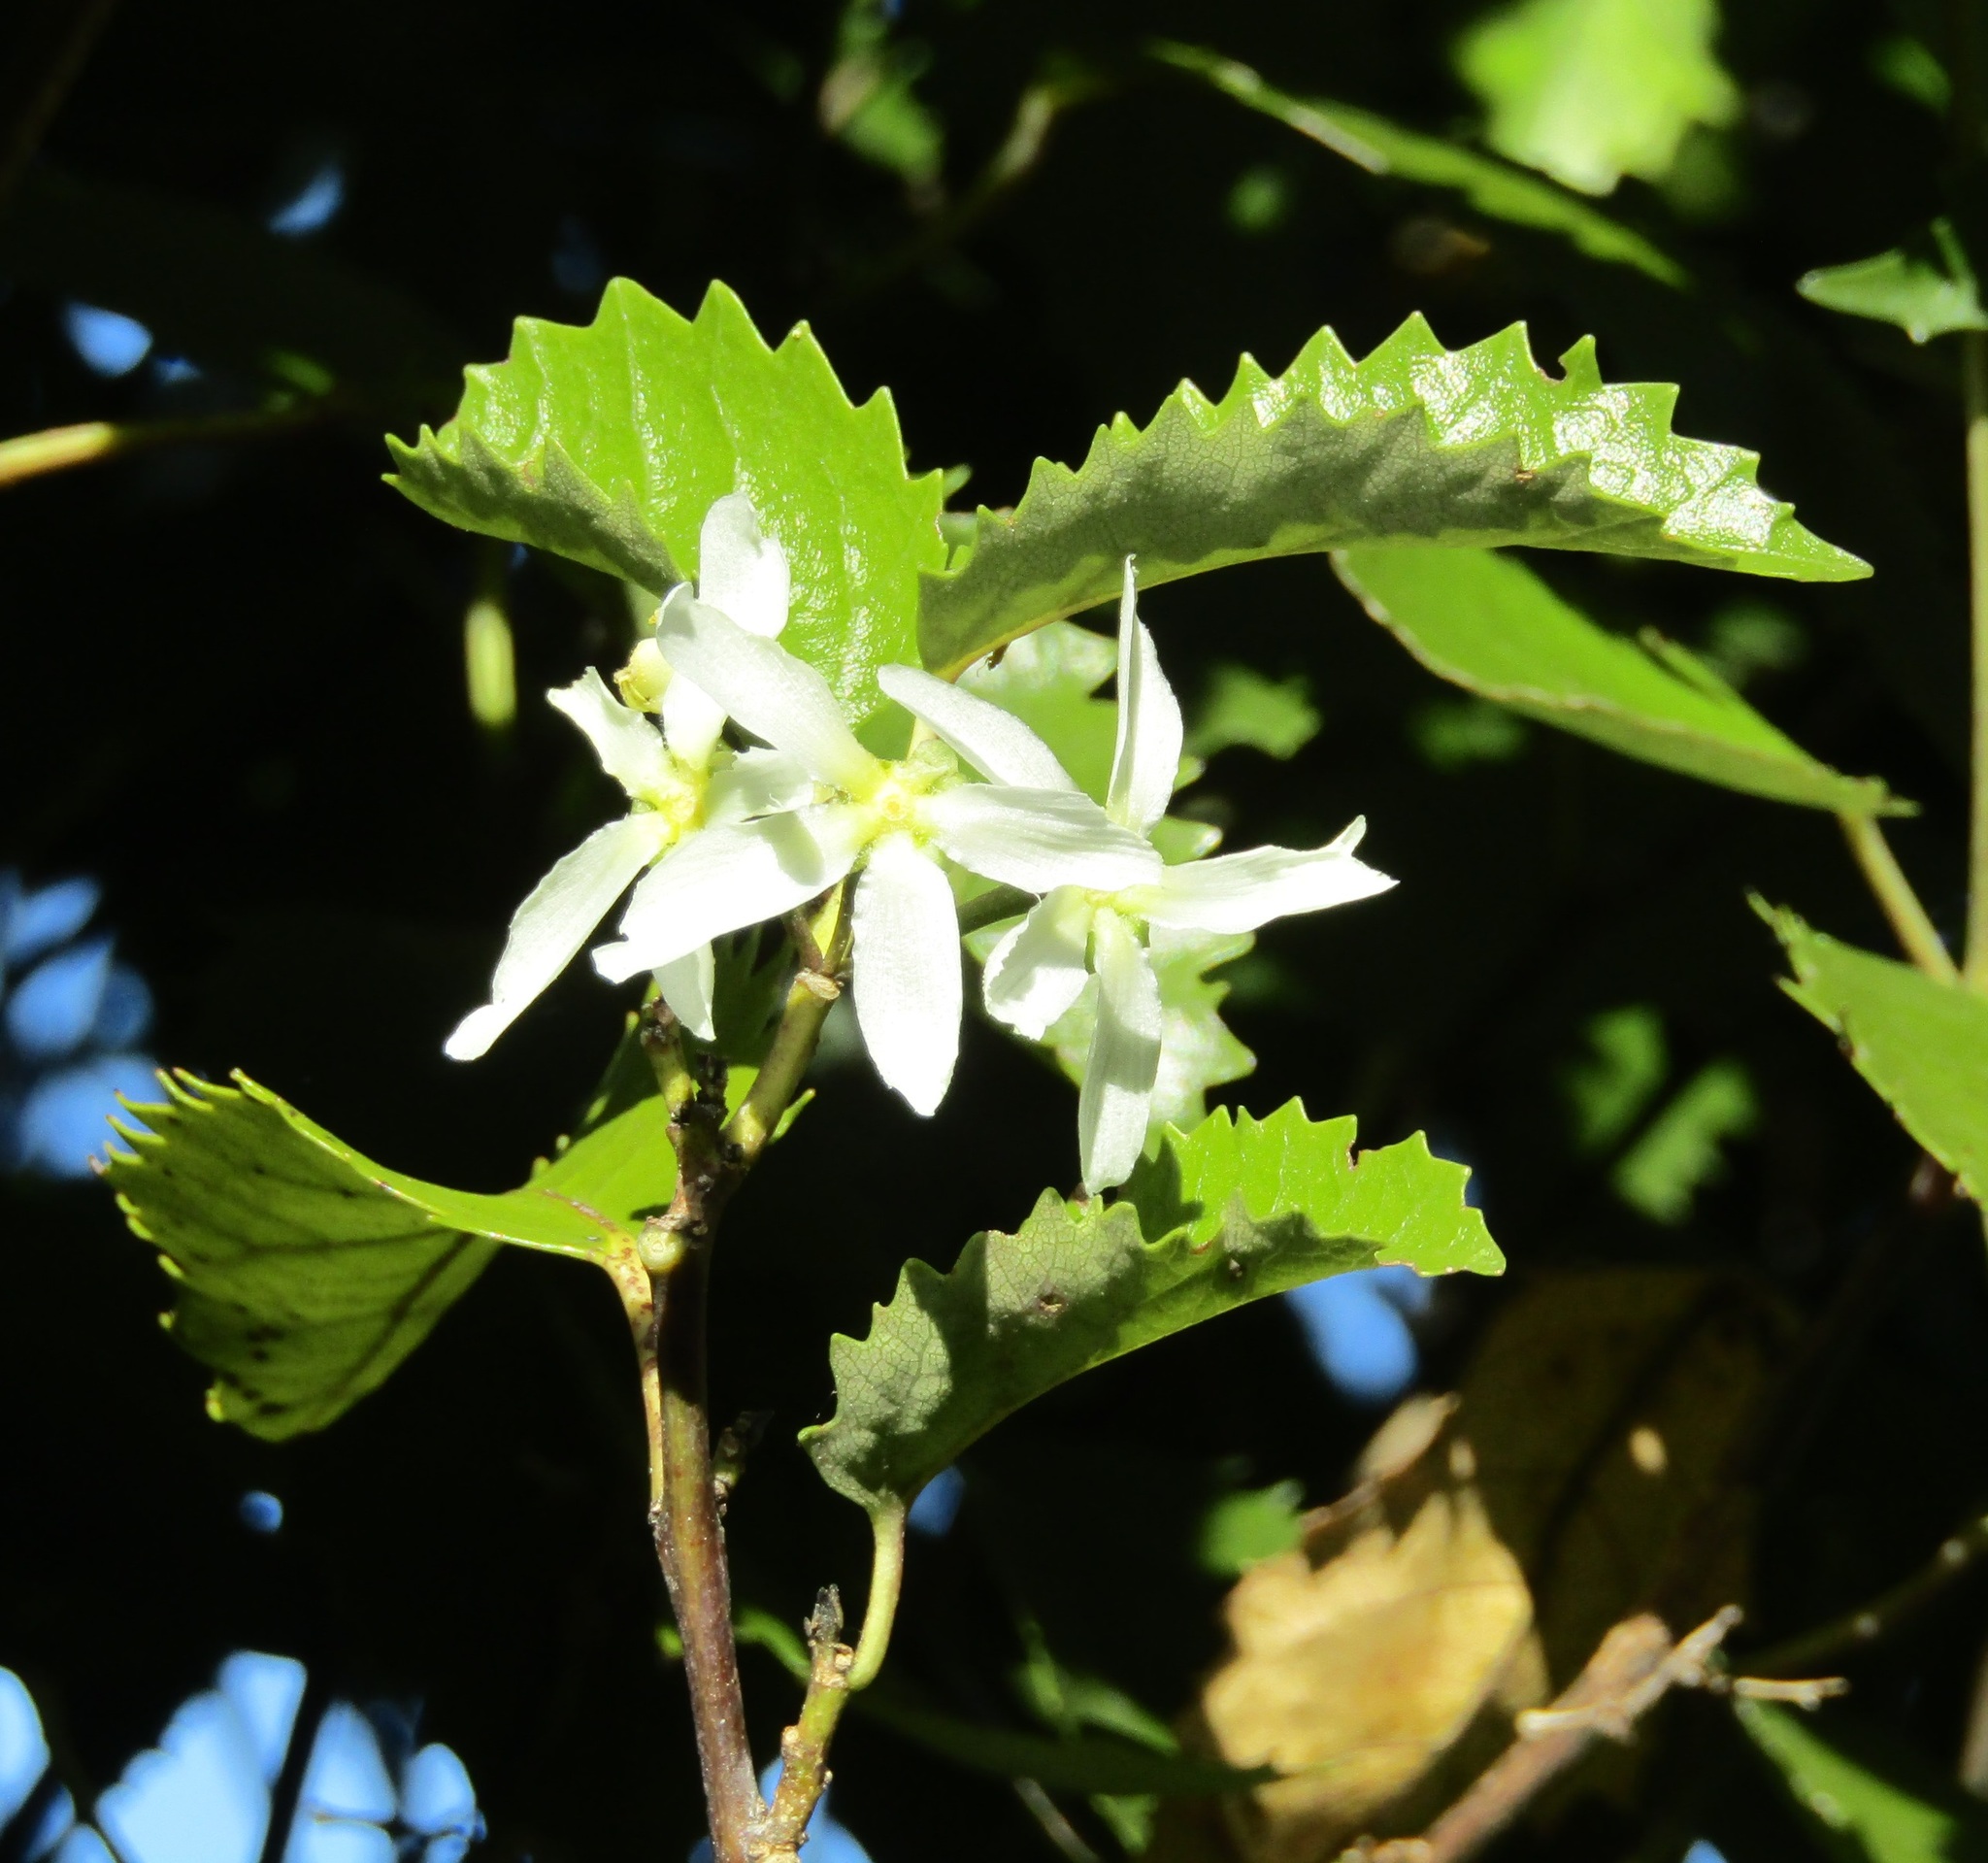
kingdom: Plantae
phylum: Tracheophyta
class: Magnoliopsida
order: Malvales
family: Malvaceae
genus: Hoheria
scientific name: Hoheria populnea
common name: Lacebark
